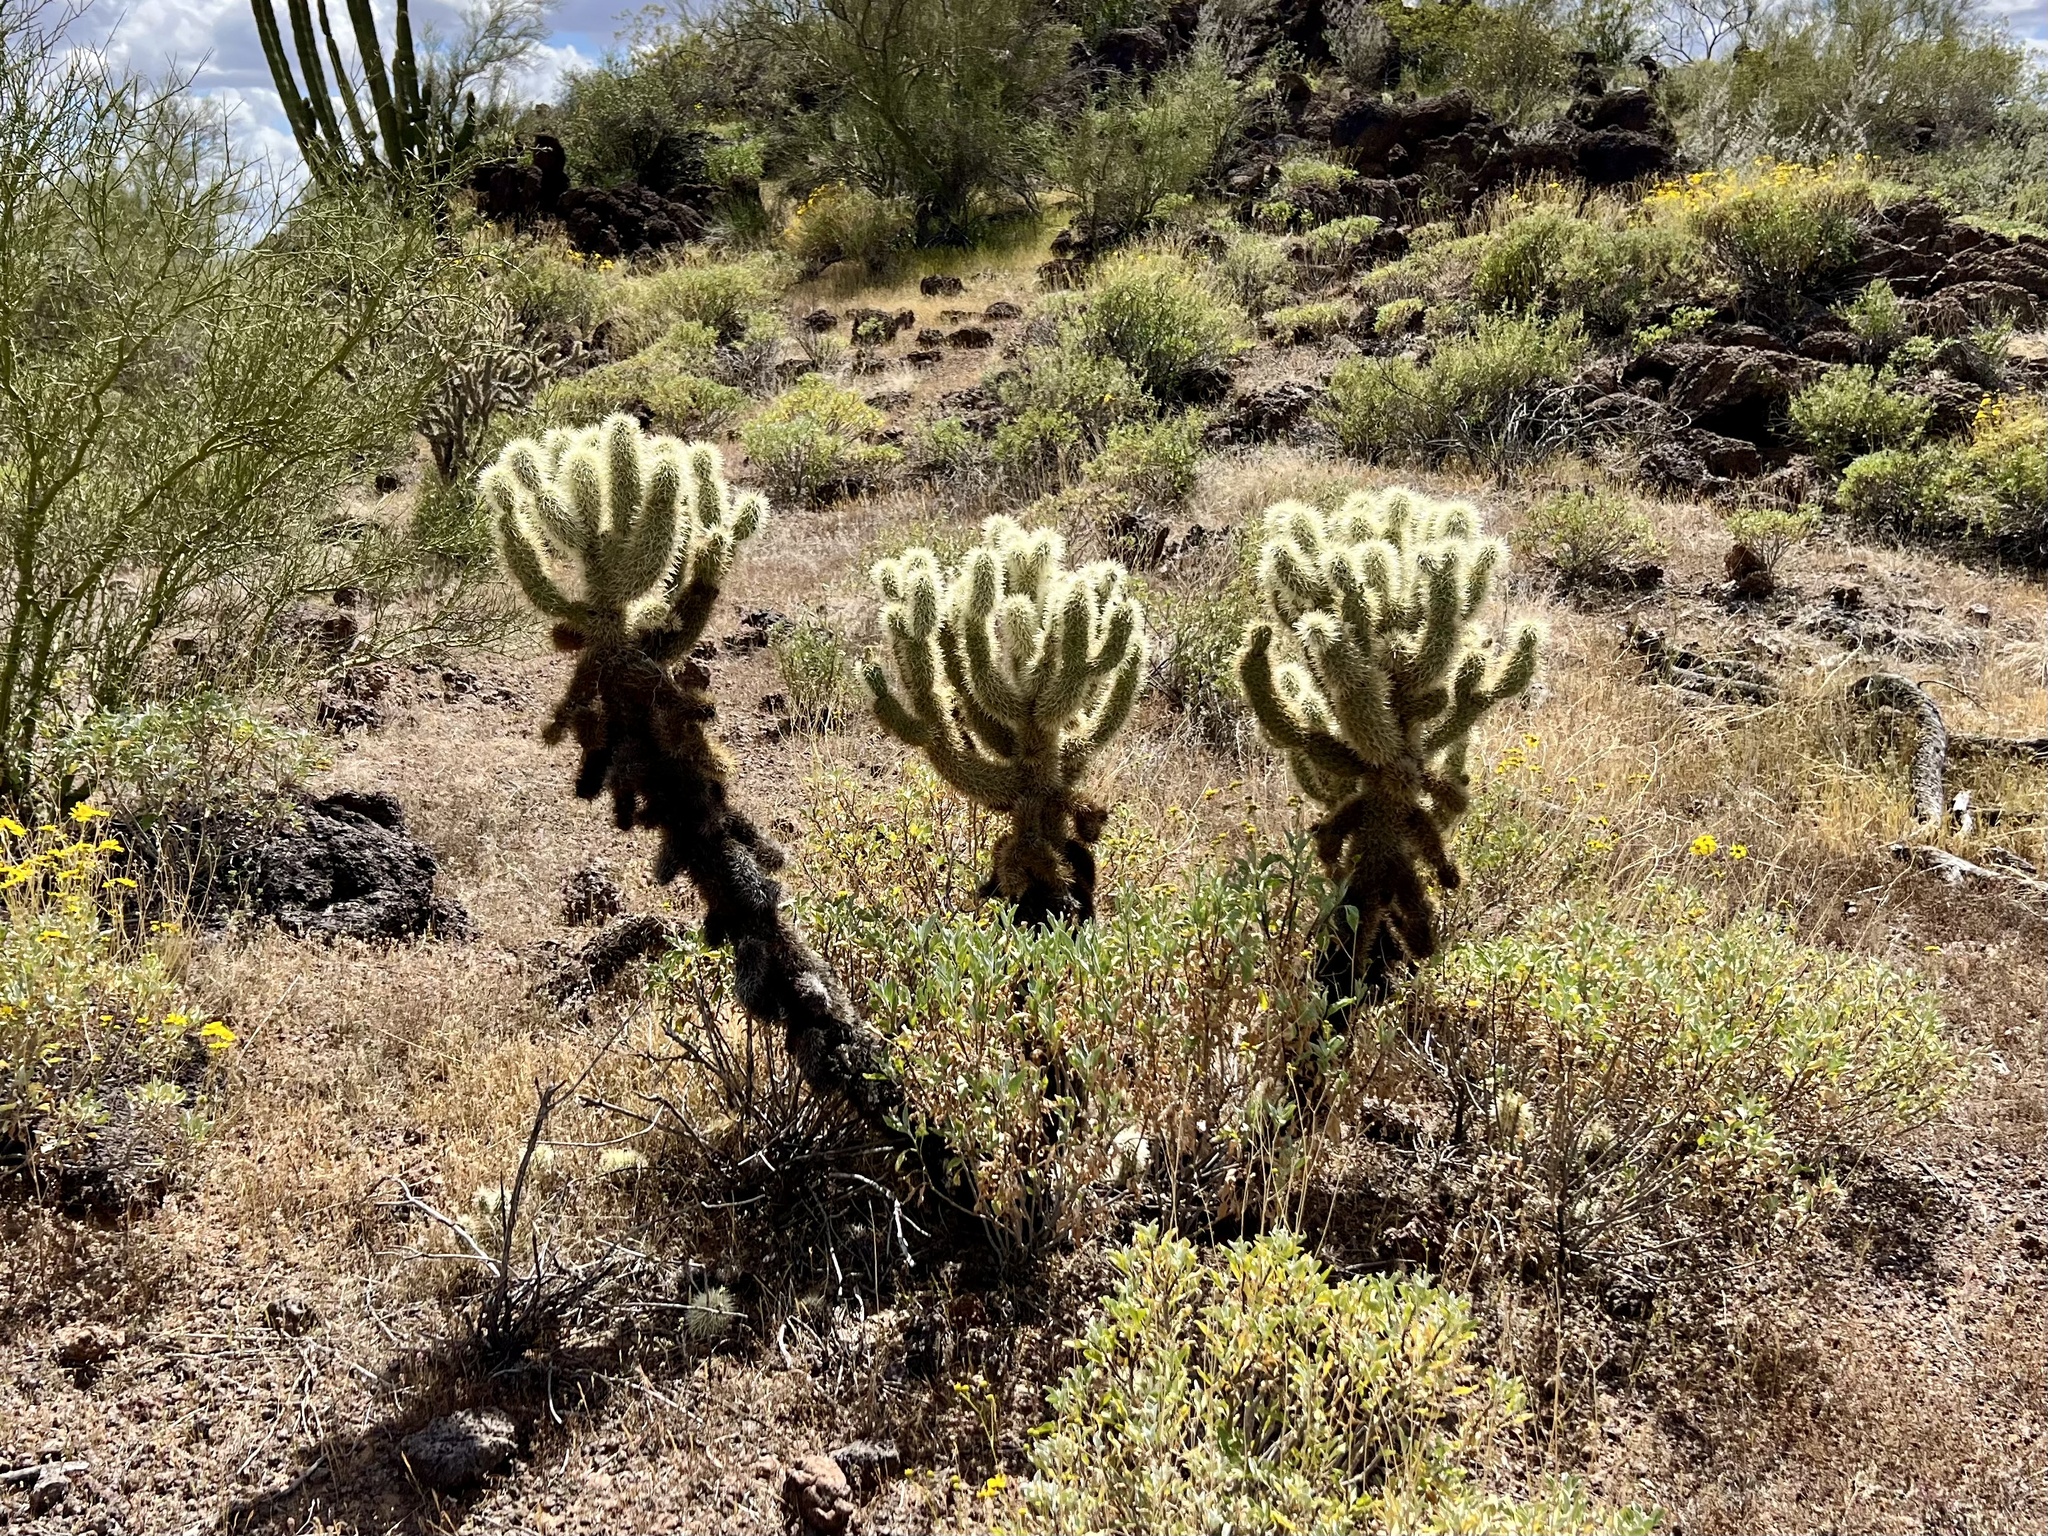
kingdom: Plantae
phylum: Tracheophyta
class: Magnoliopsida
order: Caryophyllales
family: Cactaceae
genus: Cylindropuntia
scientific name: Cylindropuntia fosbergii
